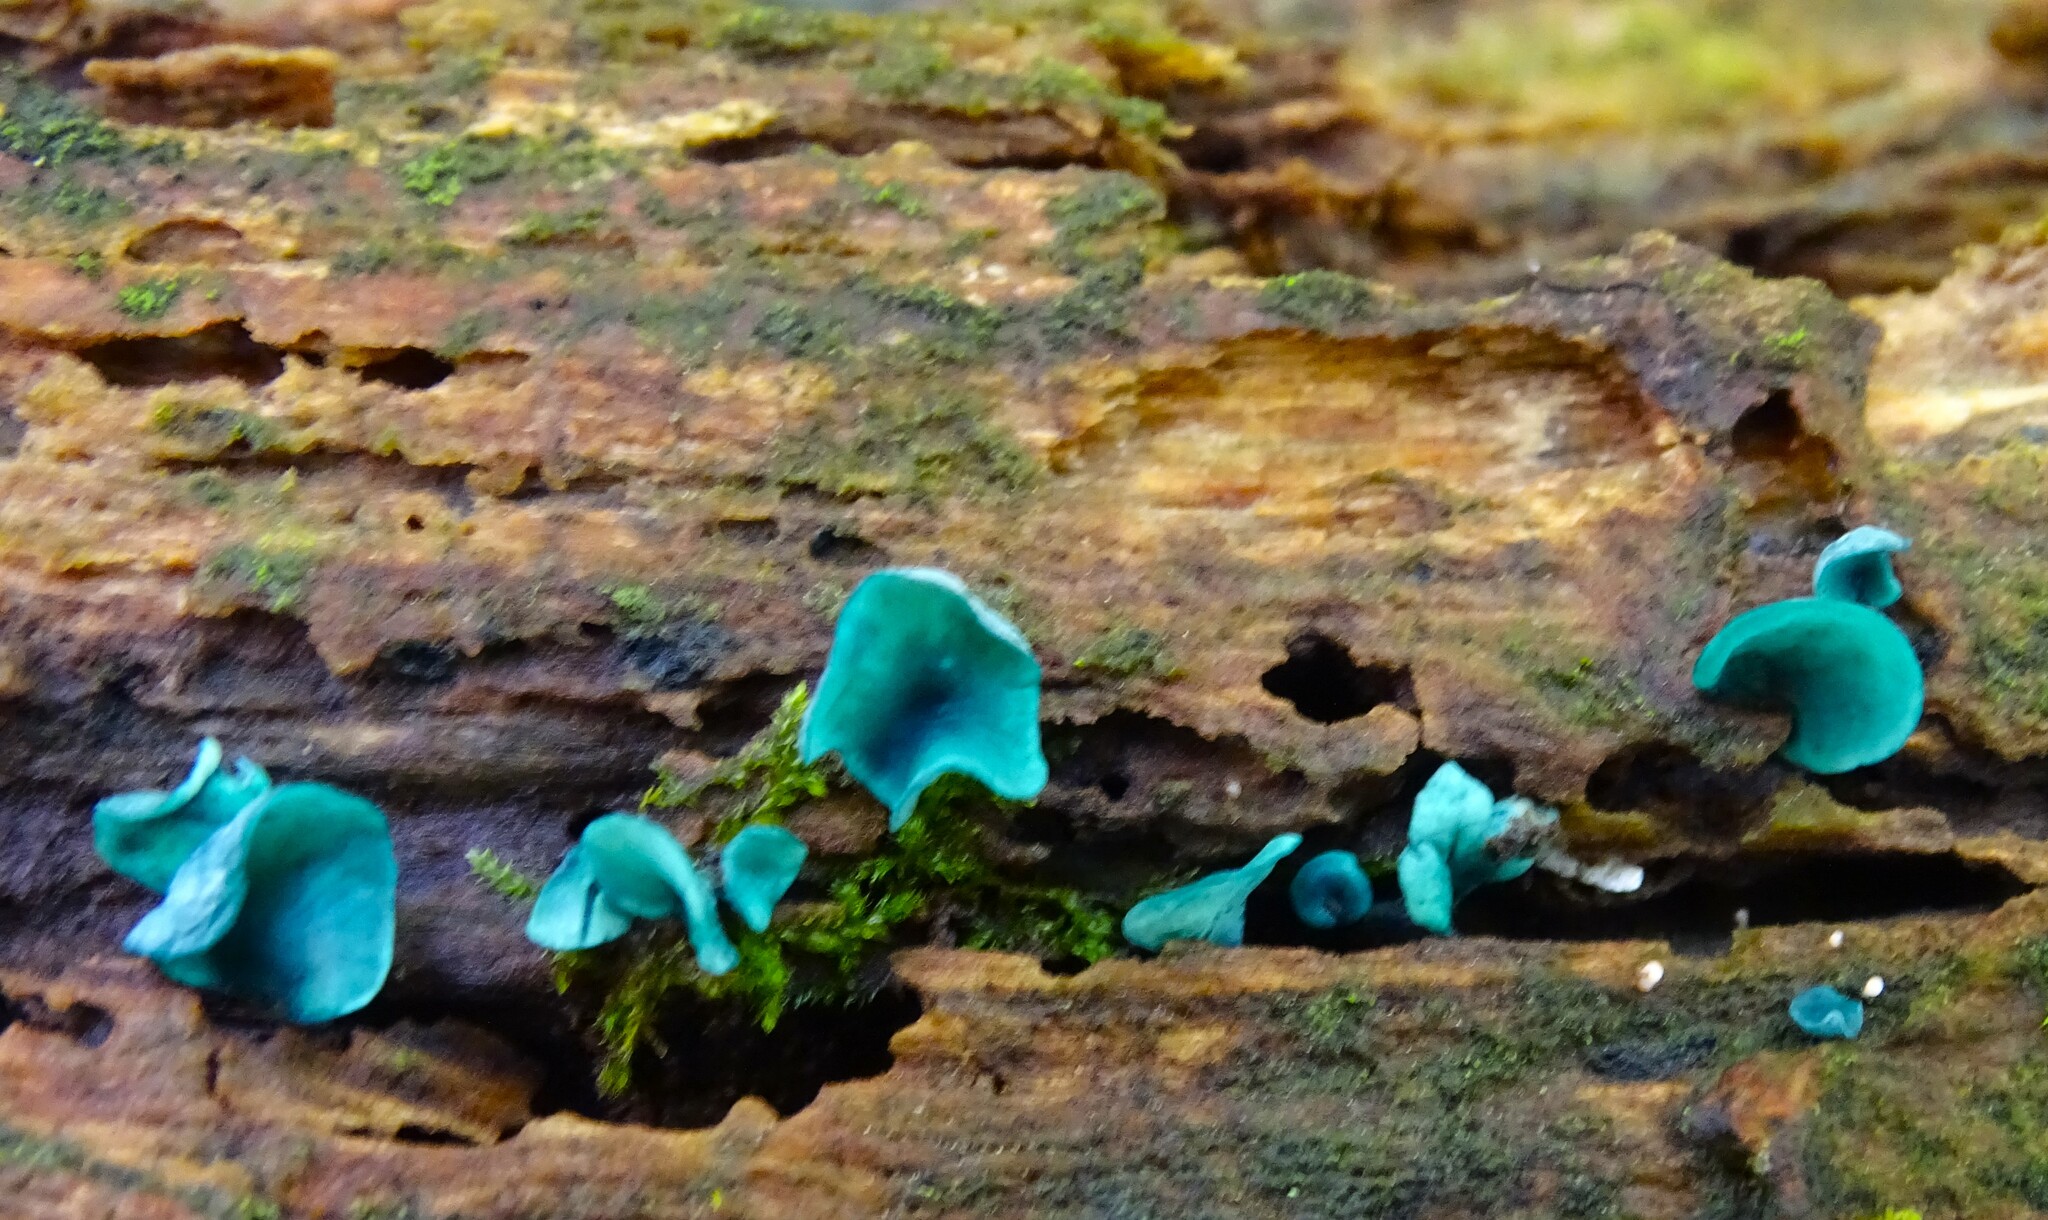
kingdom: Fungi
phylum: Ascomycota
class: Leotiomycetes
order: Helotiales
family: Chlorociboriaceae
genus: Chlorociboria
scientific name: Chlorociboria aeruginascens
